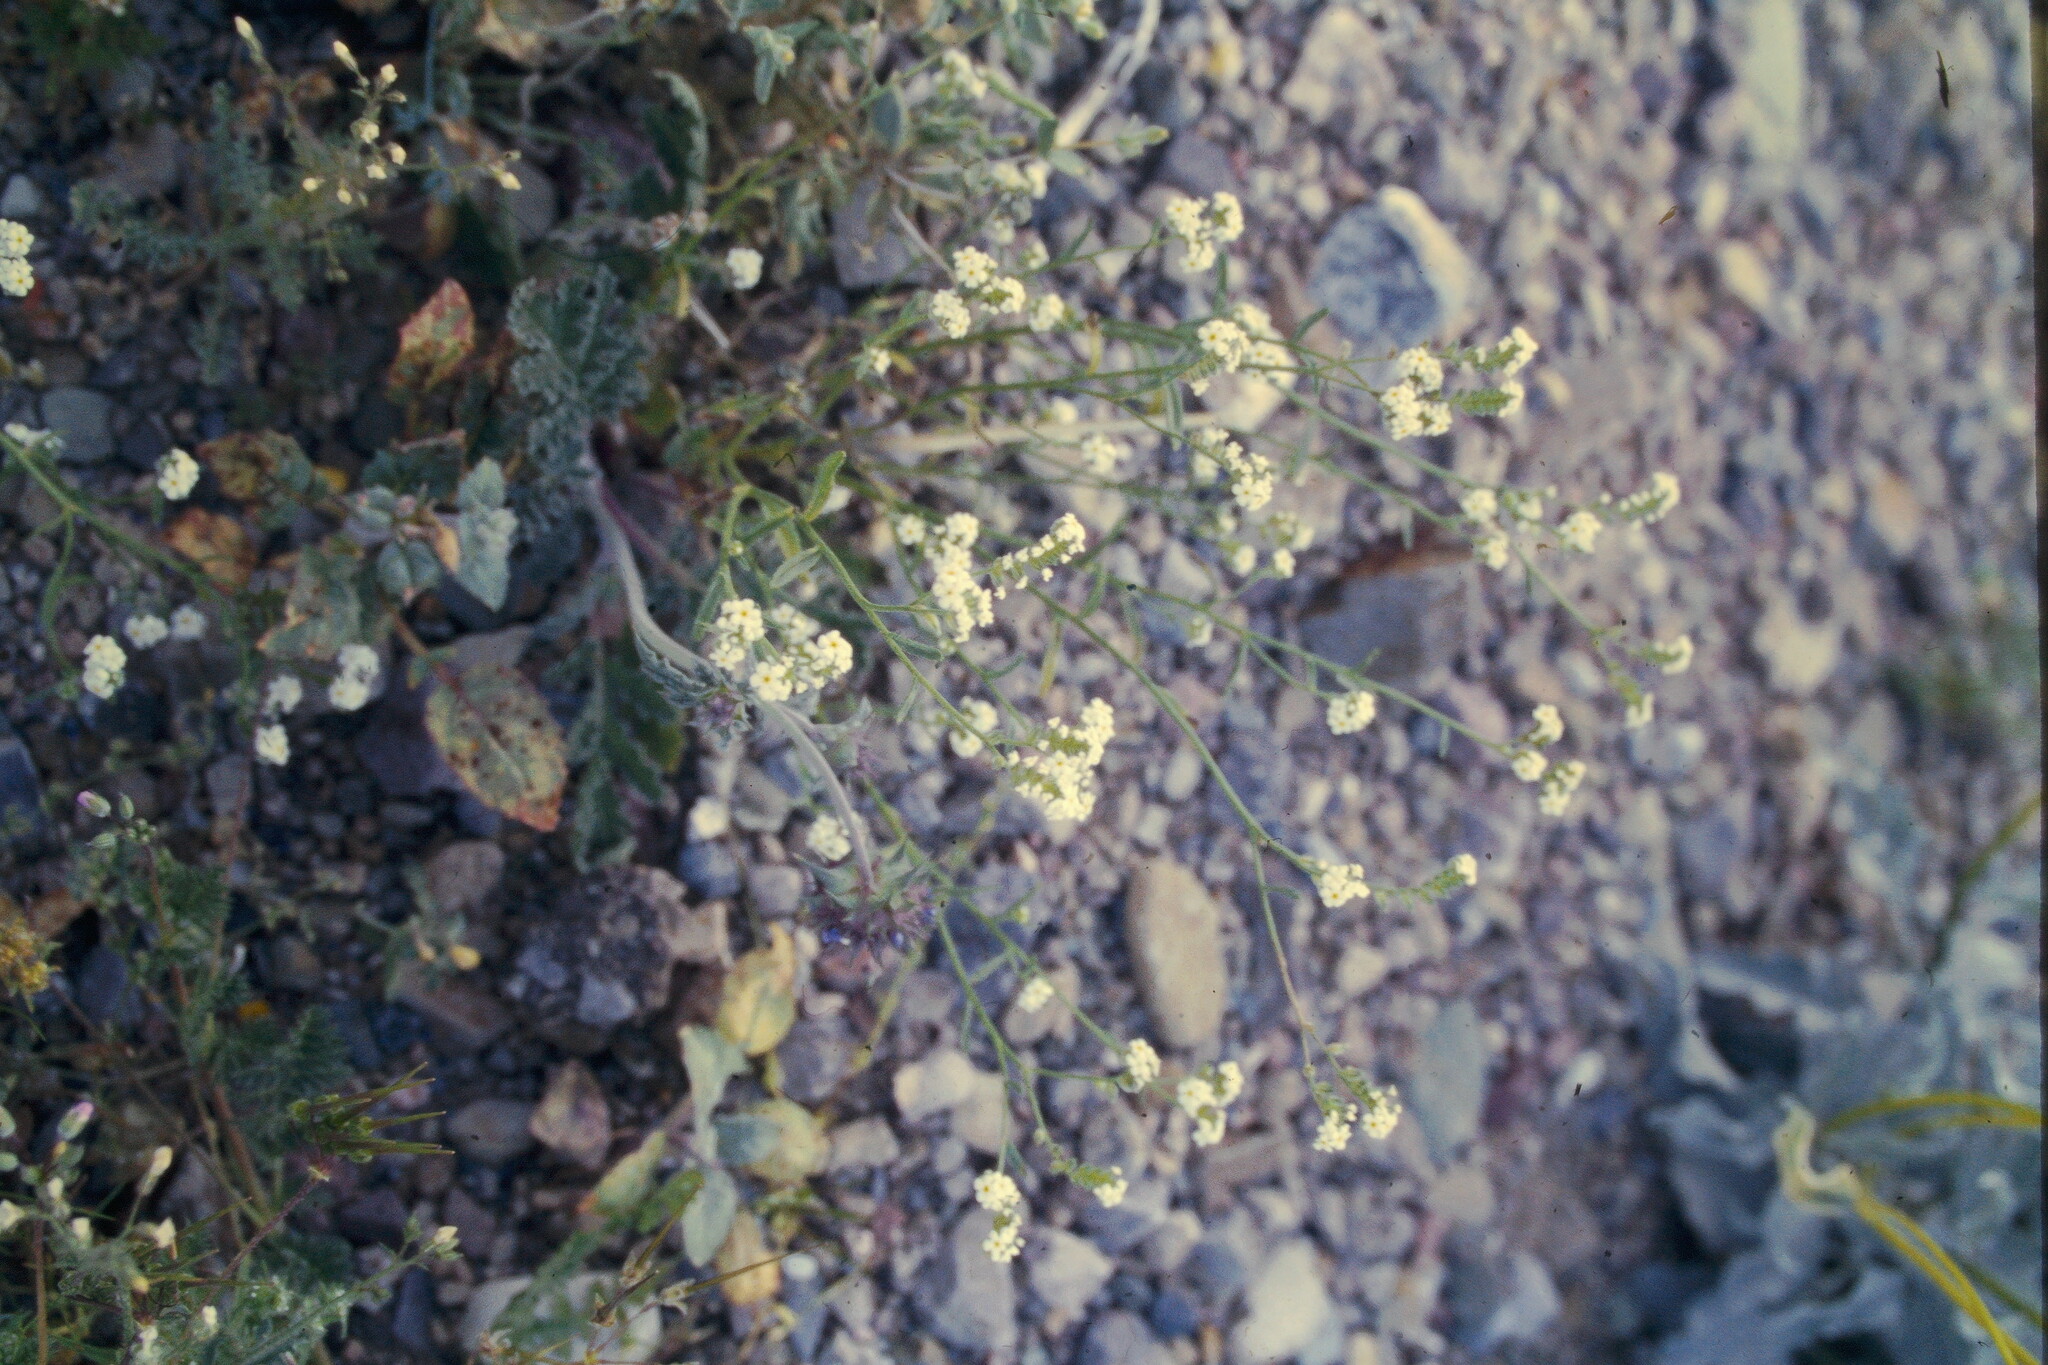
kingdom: Plantae
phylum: Tracheophyta
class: Magnoliopsida
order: Boraginales
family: Boraginaceae
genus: Cryptantha
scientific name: Cryptantha utahensis
